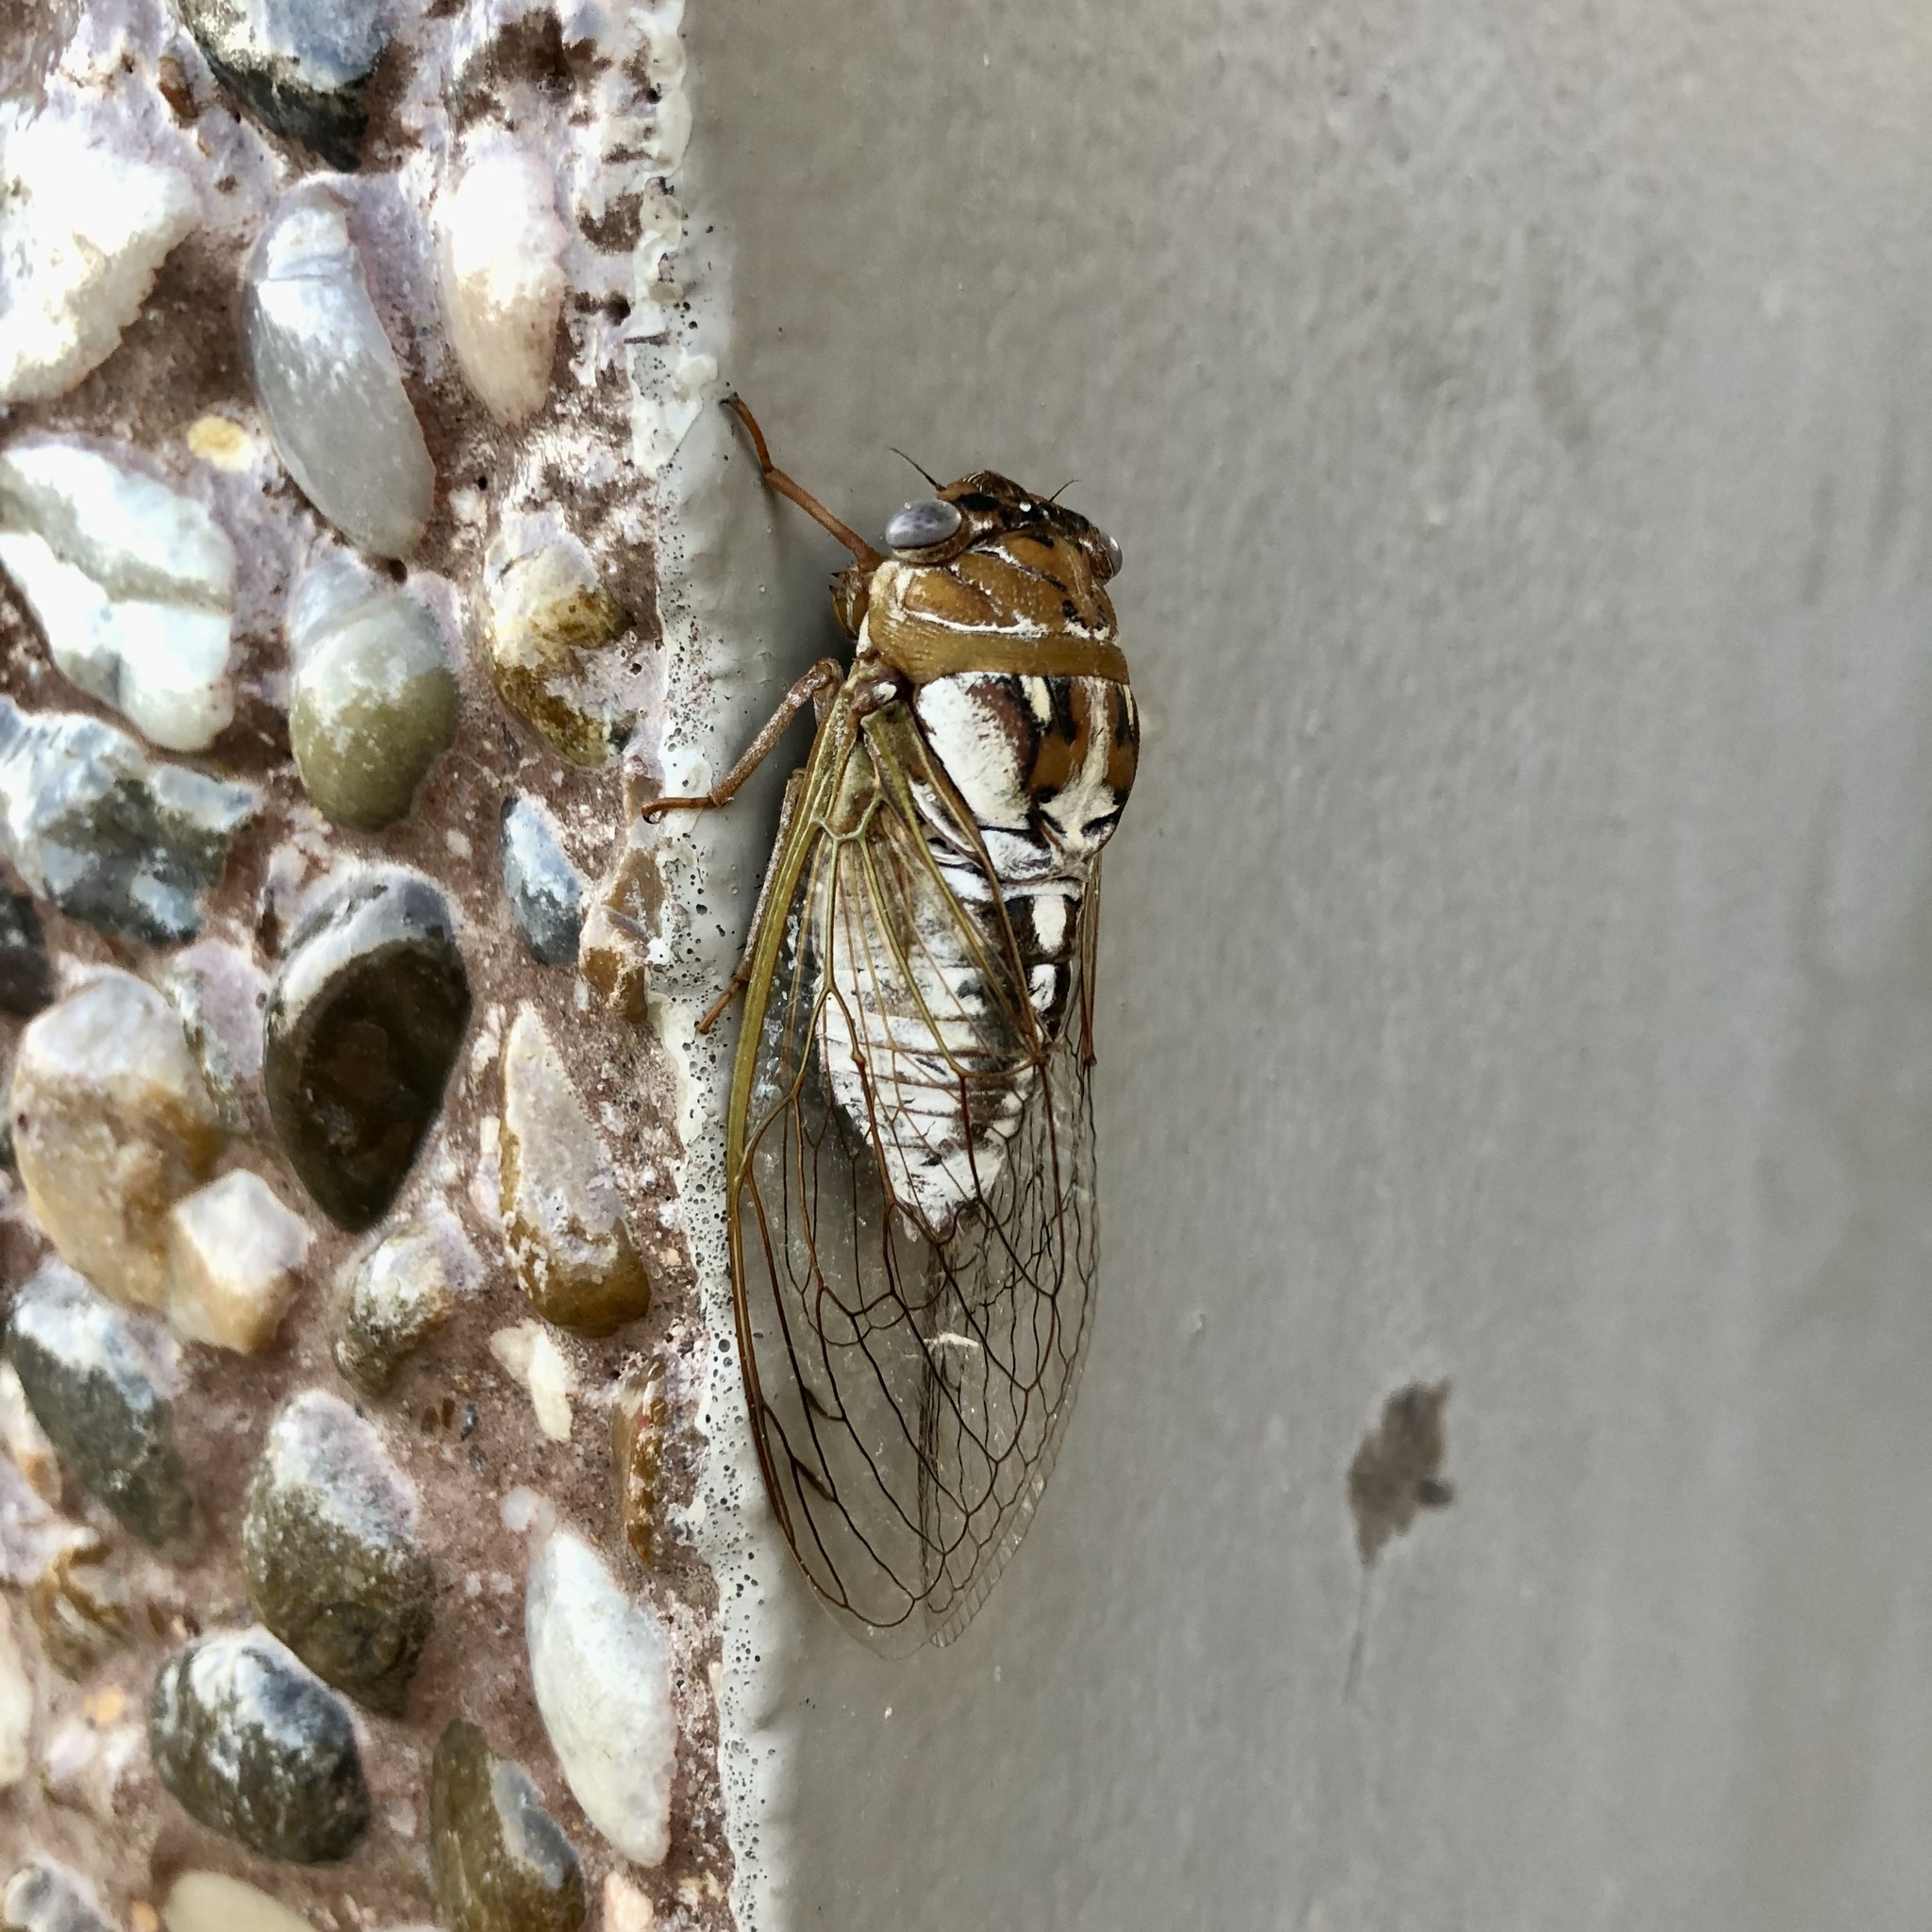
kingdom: Animalia
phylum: Arthropoda
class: Insecta
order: Hemiptera
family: Cicadidae
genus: Megatibicen
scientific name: Megatibicen dealbatus
